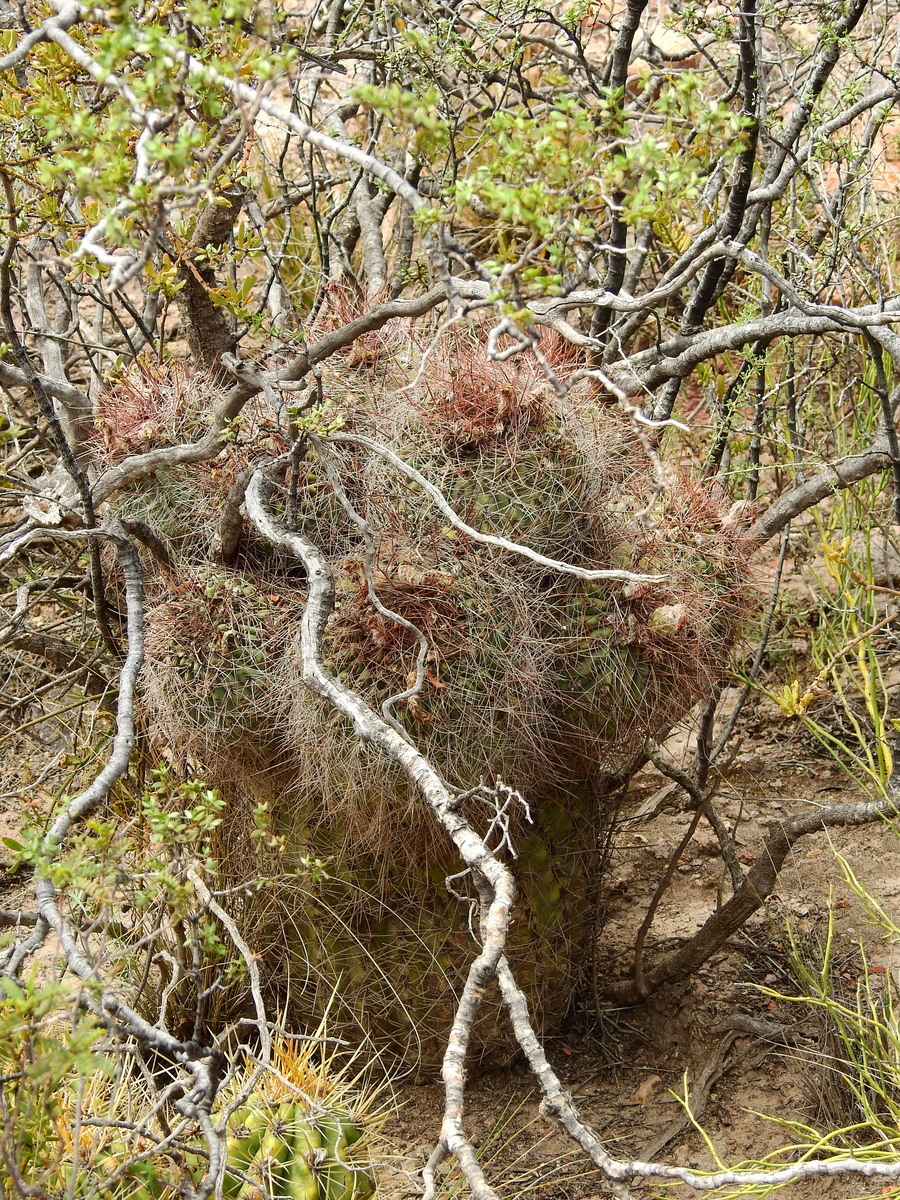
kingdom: Plantae
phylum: Tracheophyta
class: Magnoliopsida
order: Caryophyllales
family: Cactaceae
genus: Denmoza
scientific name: Denmoza rhodacantha
